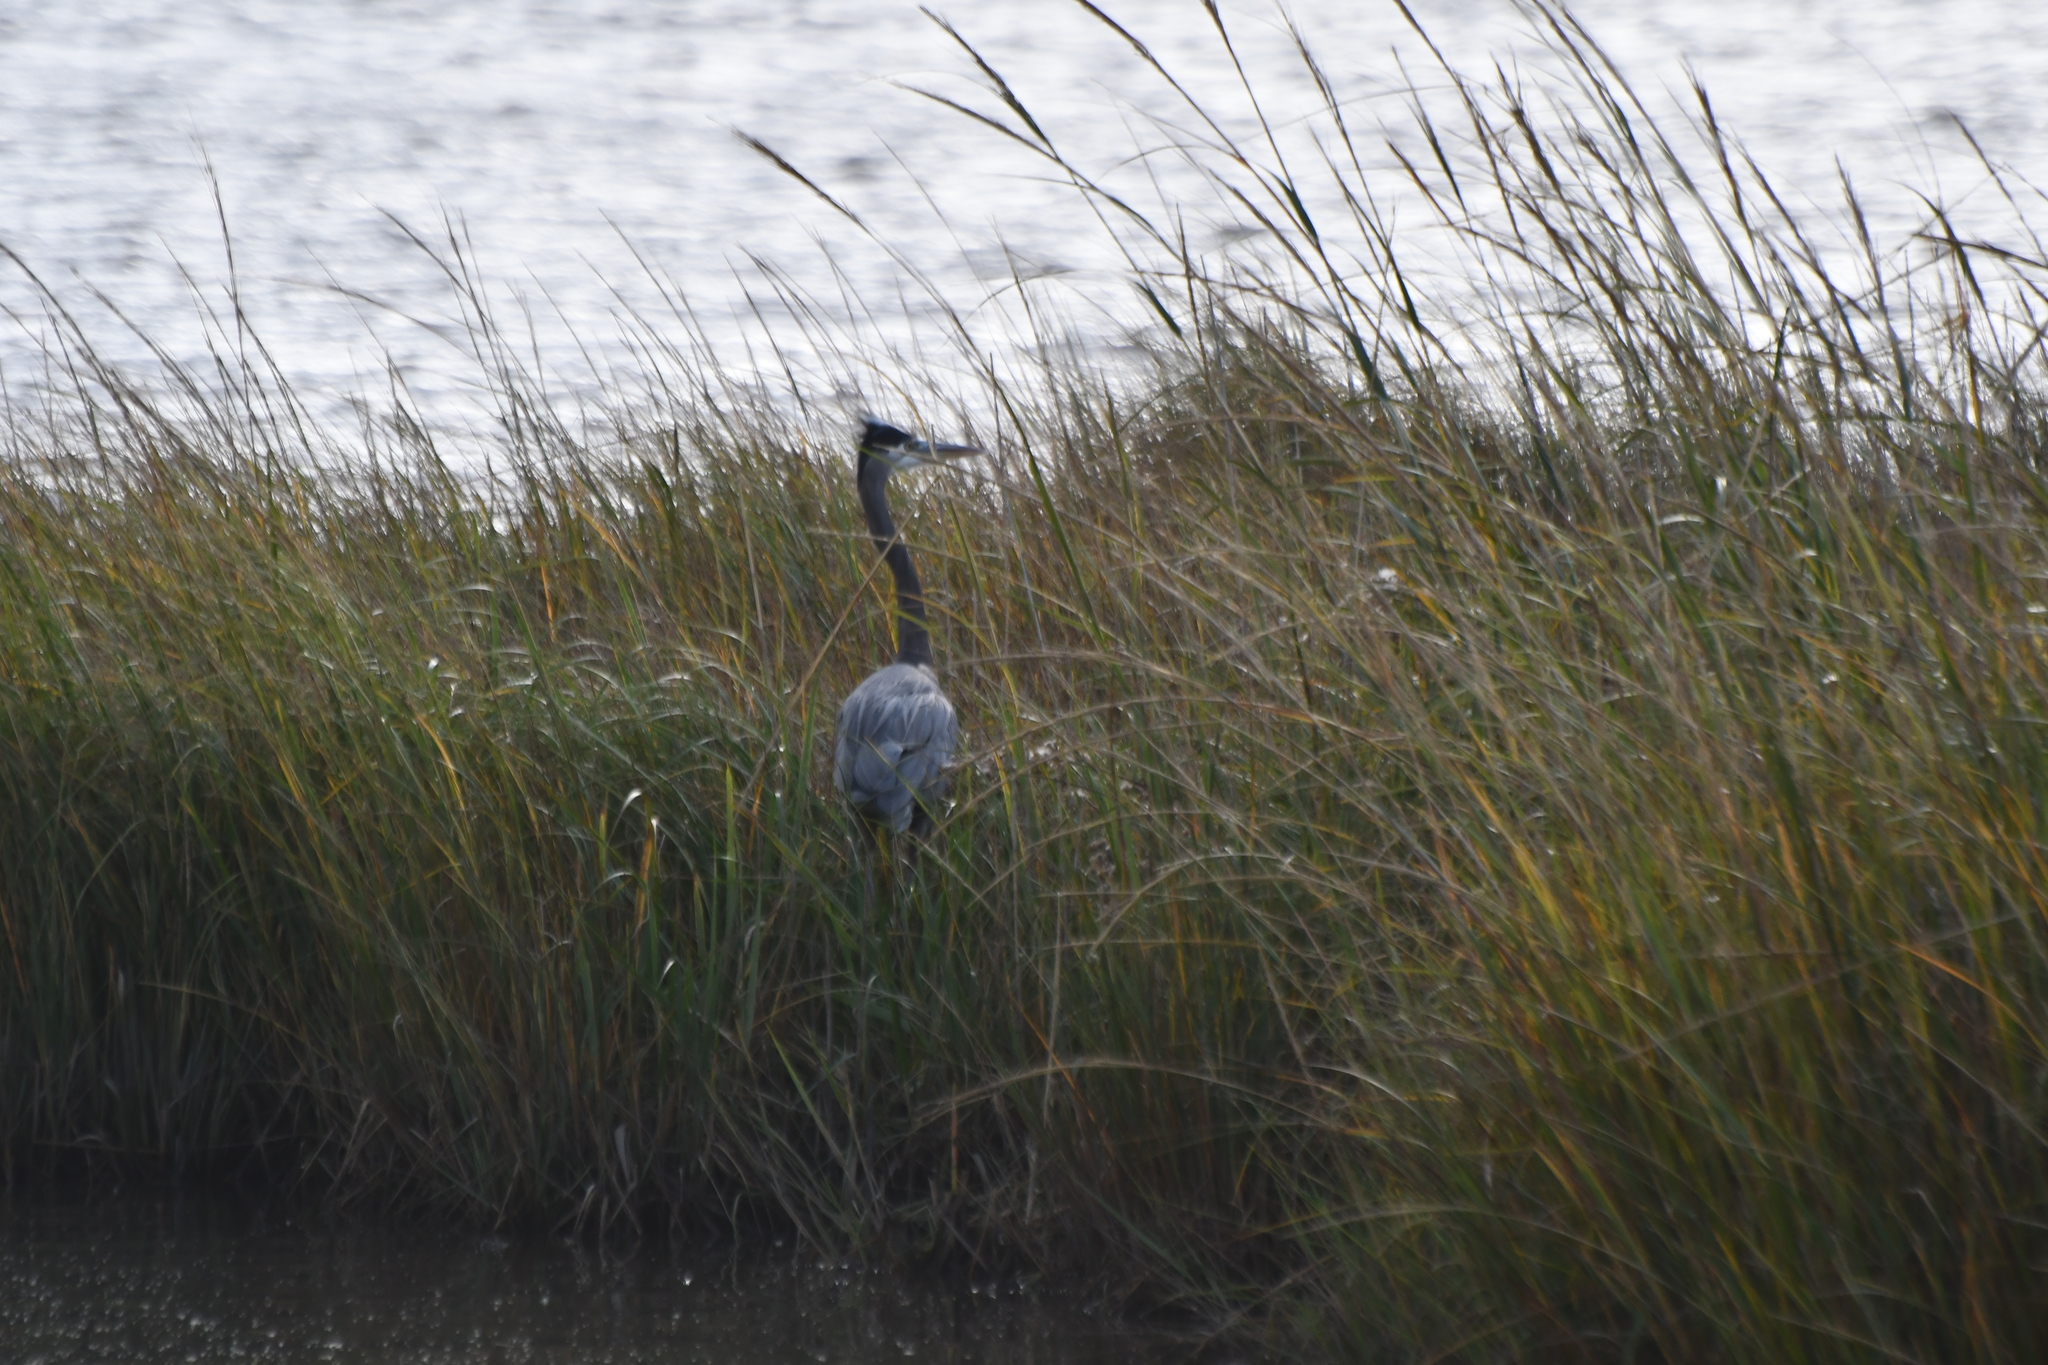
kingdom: Animalia
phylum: Chordata
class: Aves
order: Pelecaniformes
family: Ardeidae
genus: Ardea
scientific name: Ardea herodias
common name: Great blue heron
